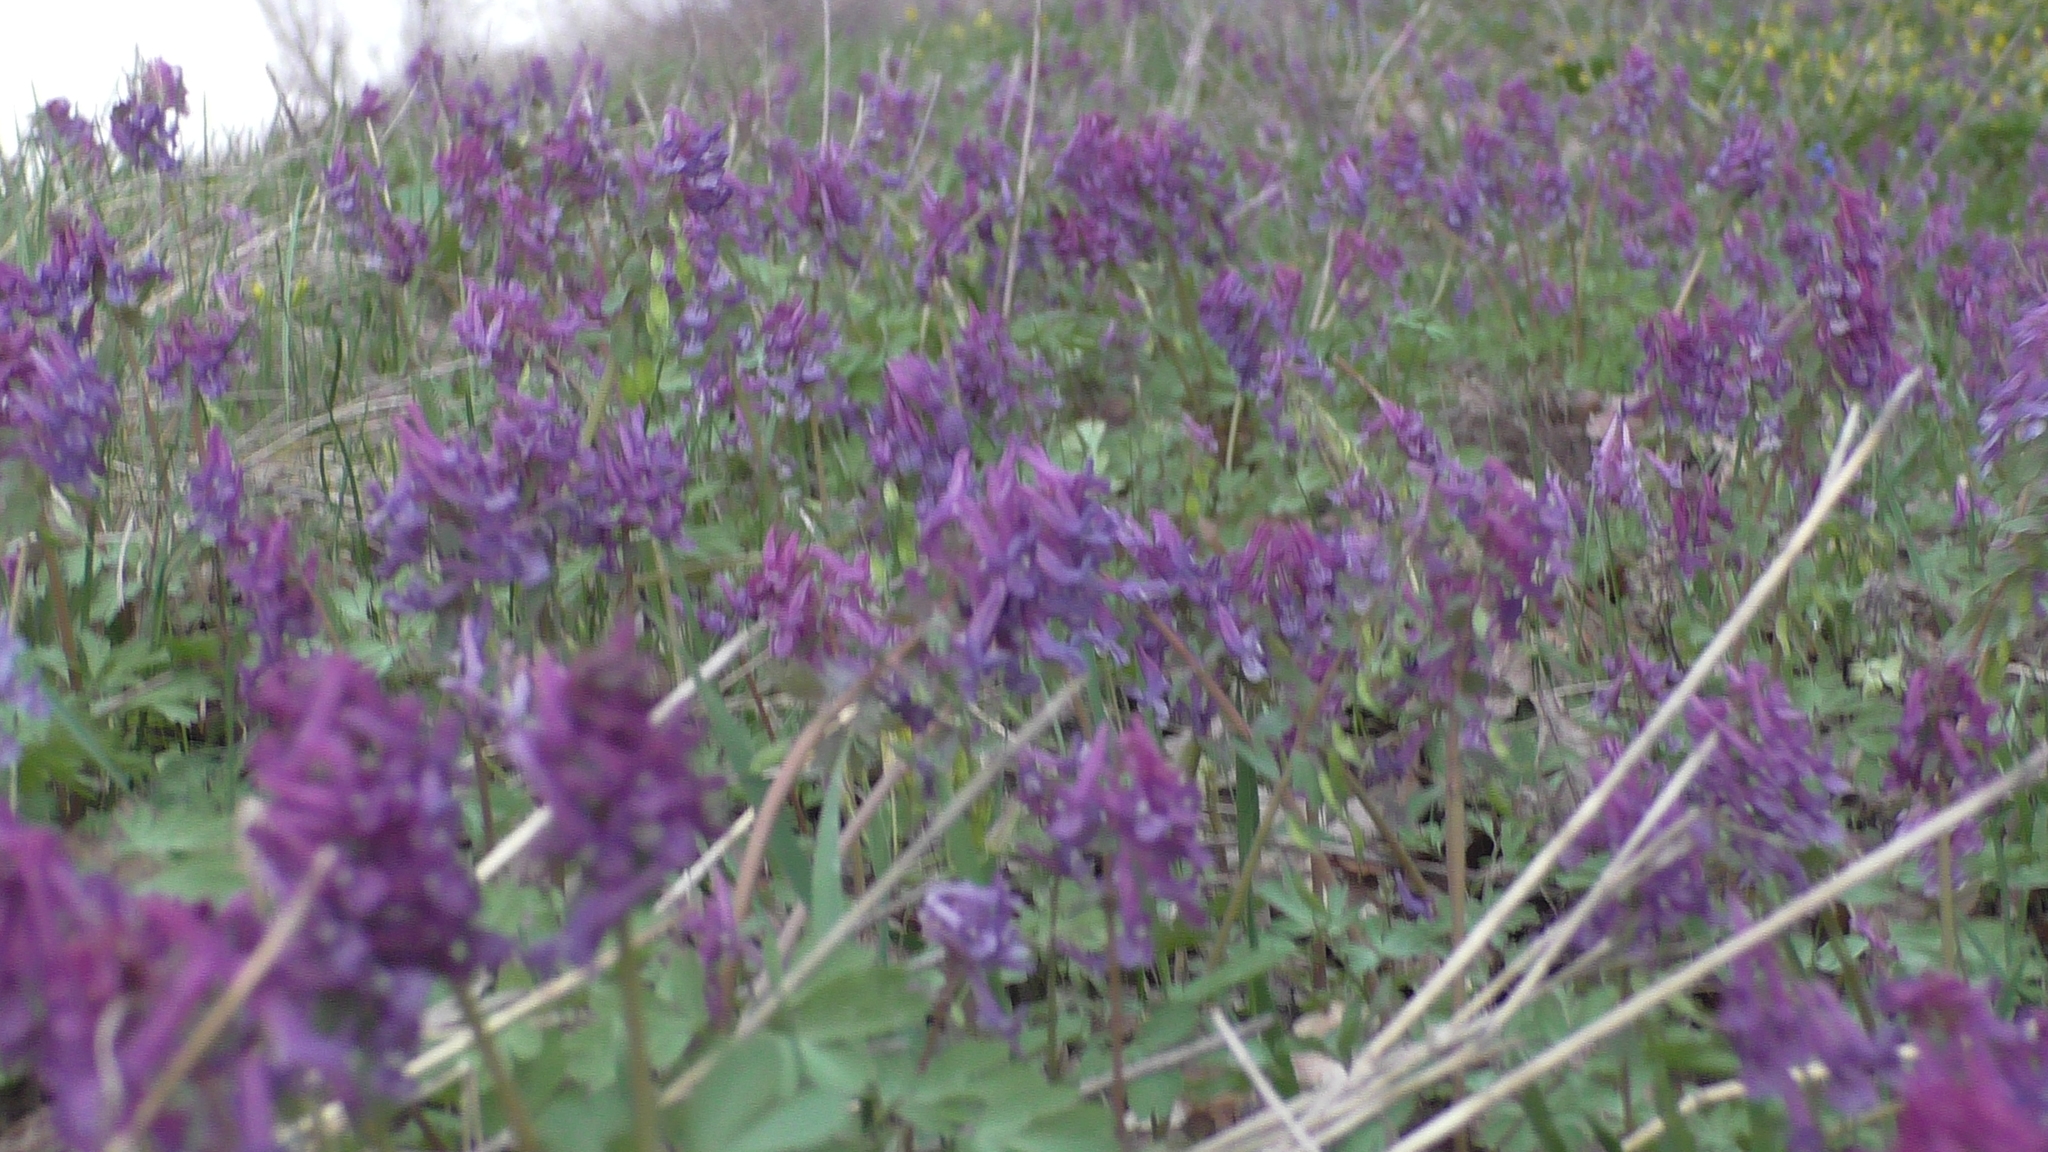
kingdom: Plantae
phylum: Tracheophyta
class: Magnoliopsida
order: Ranunculales
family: Papaveraceae
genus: Corydalis
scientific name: Corydalis solida
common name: Bird-in-a-bush
